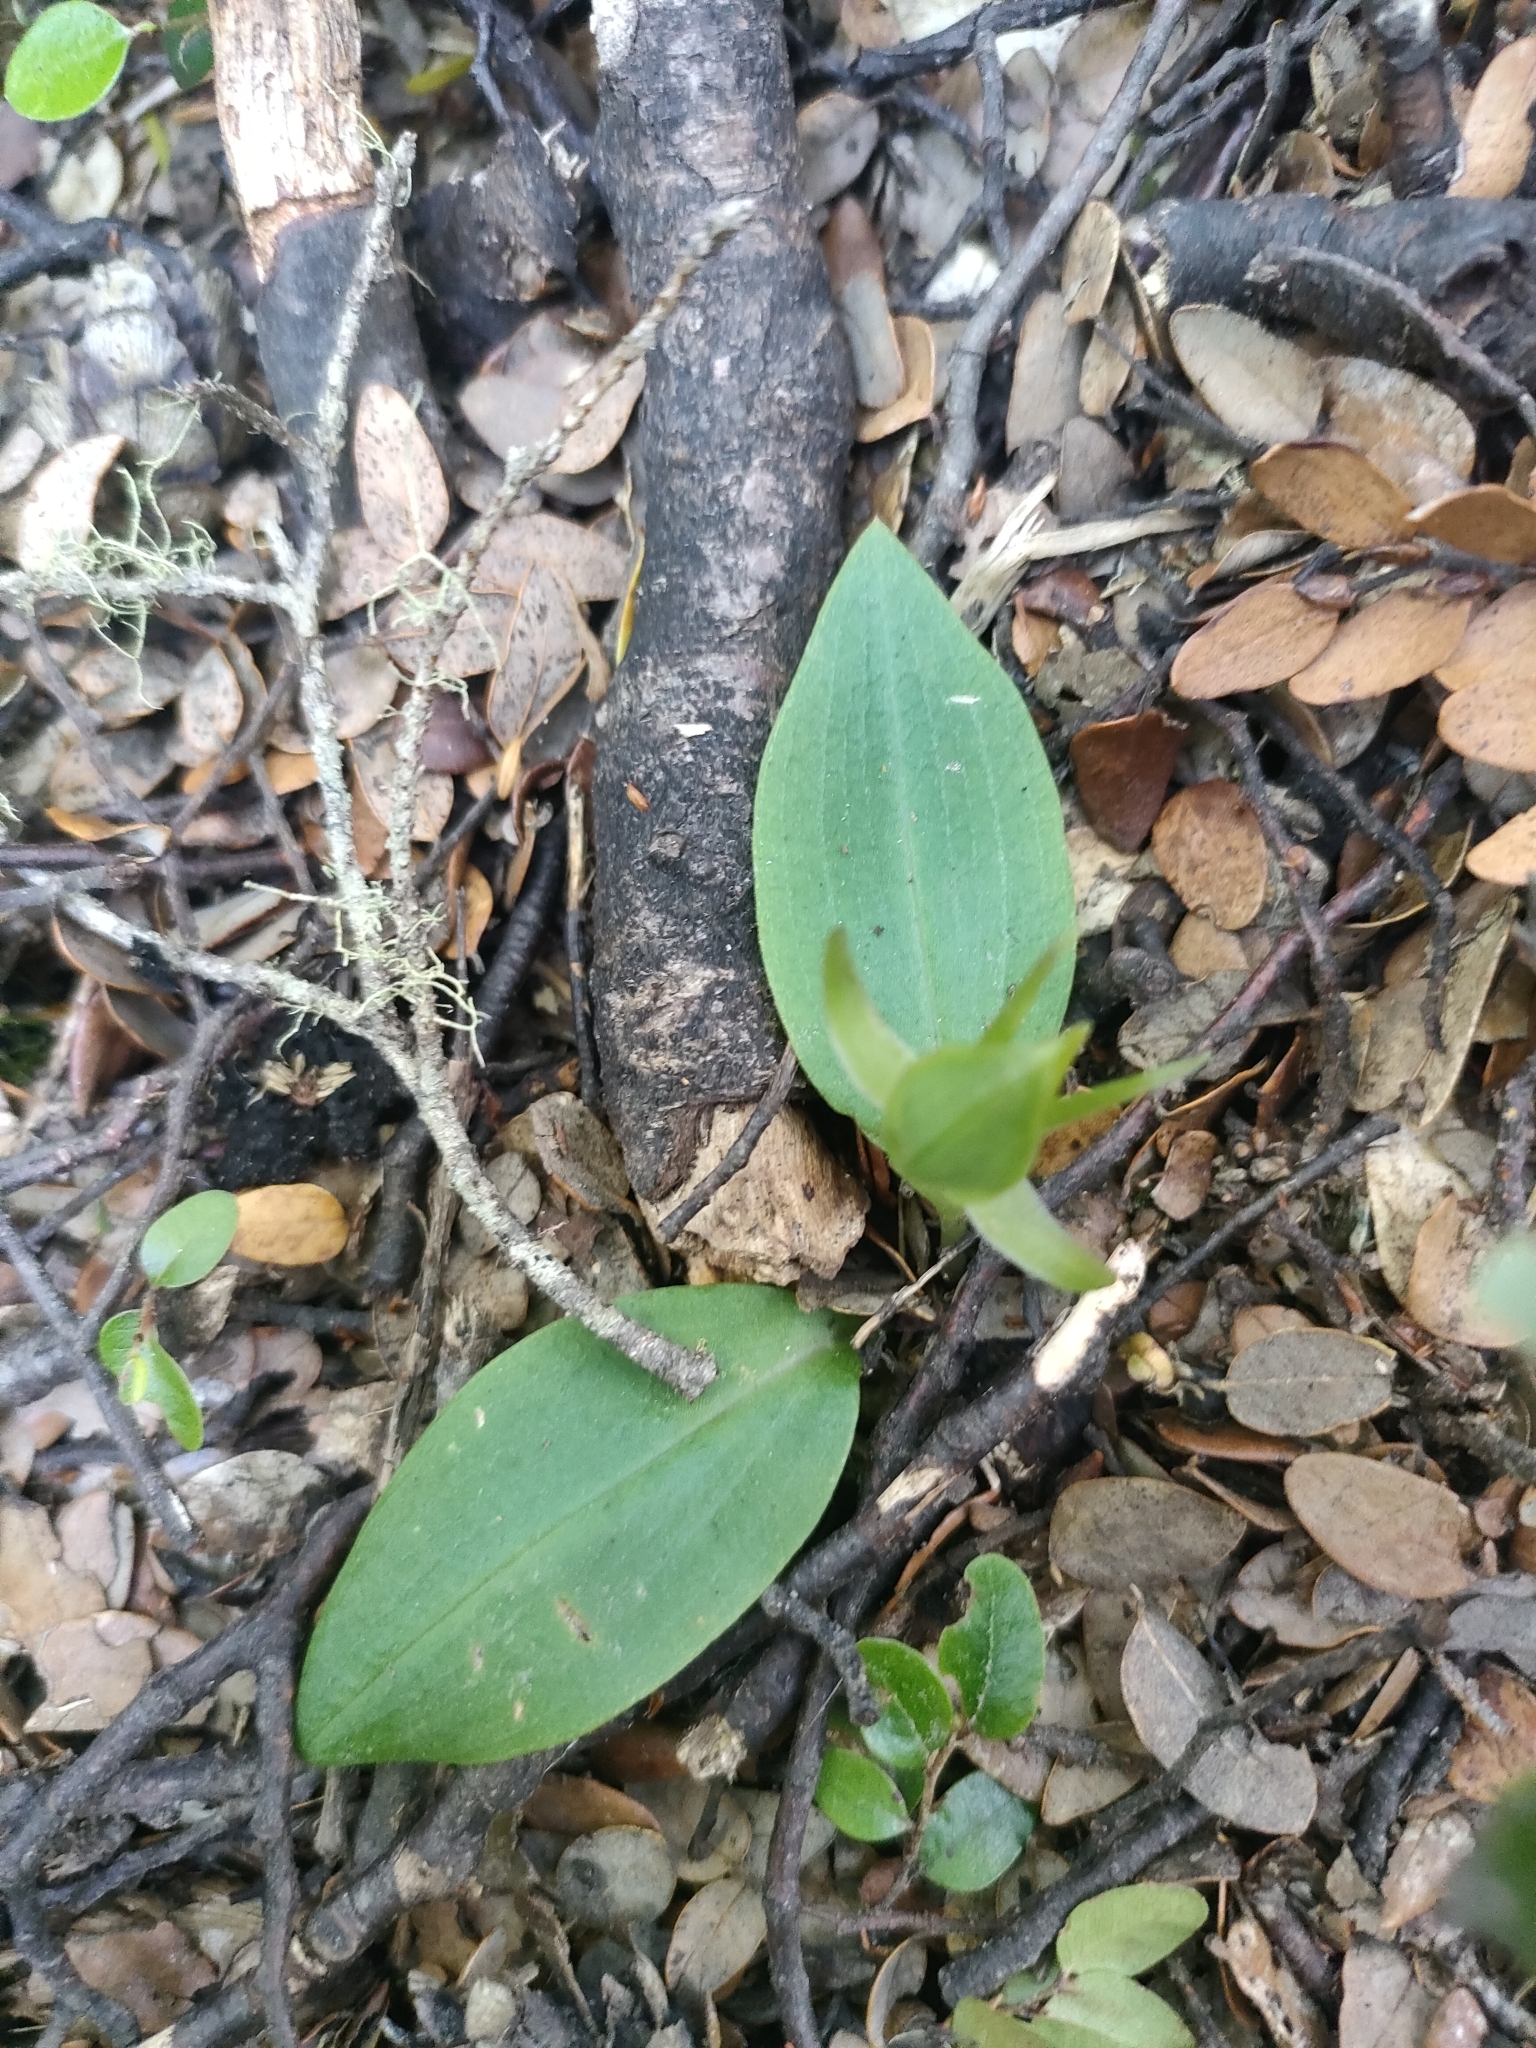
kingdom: Plantae
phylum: Tracheophyta
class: Liliopsida
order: Asparagales
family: Orchidaceae
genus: Chiloglottis
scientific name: Chiloglottis cornuta
